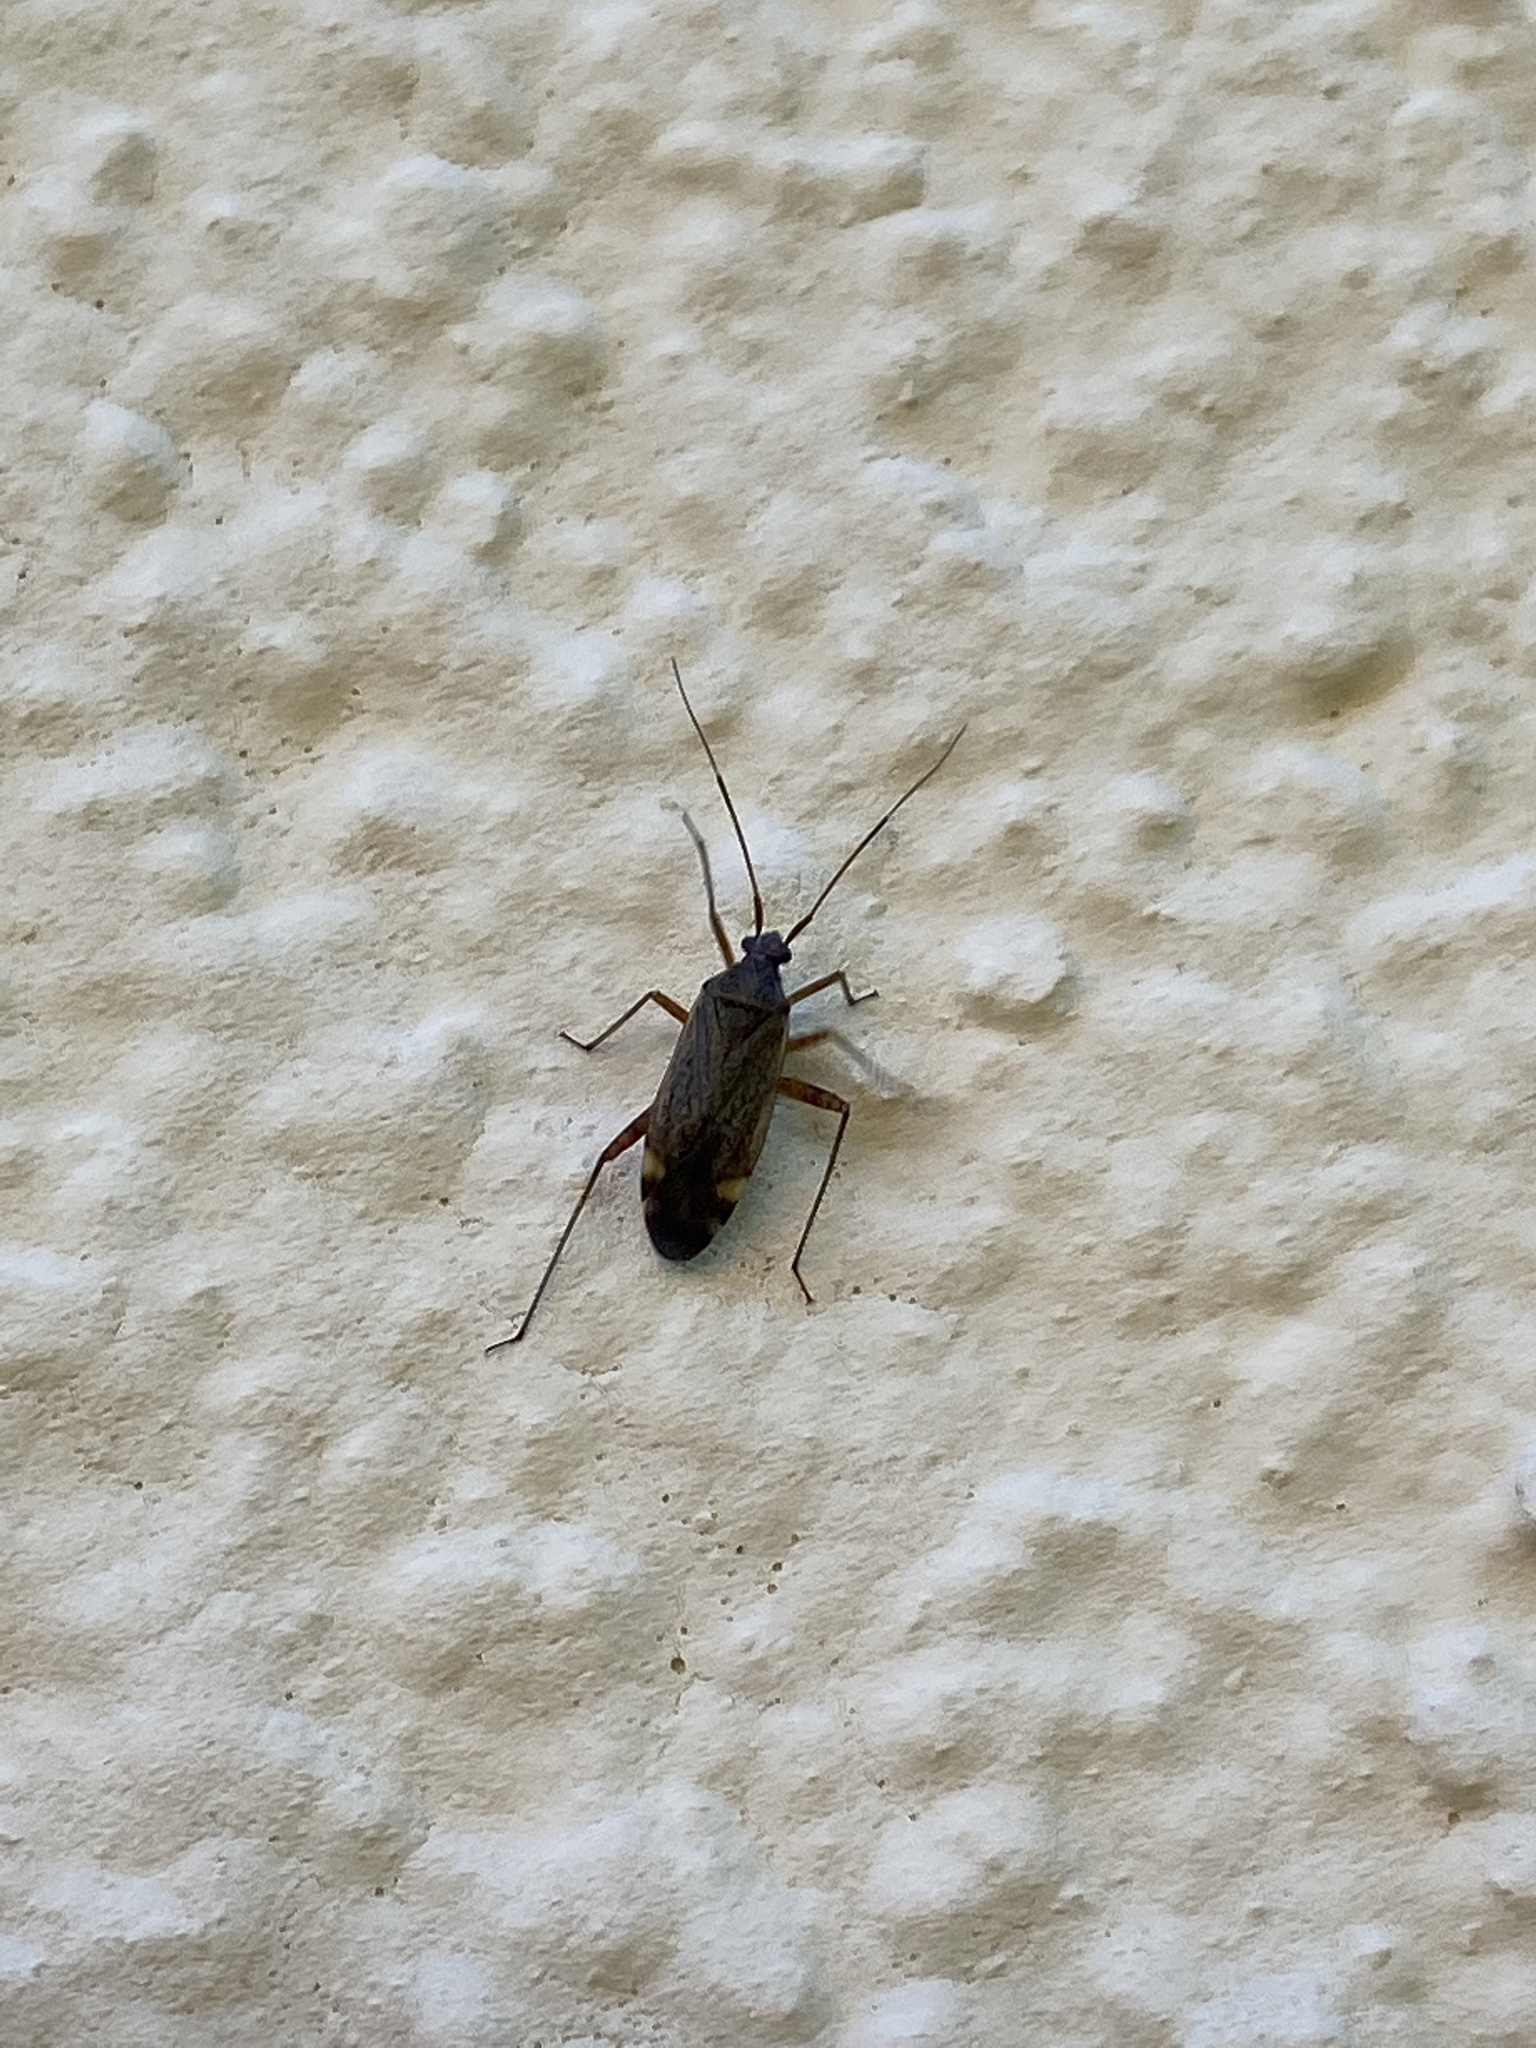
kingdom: Animalia
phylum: Arthropoda
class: Insecta
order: Hemiptera
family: Miridae
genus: Closterotomus
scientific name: Closterotomus fulvomaculatus
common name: Spotted plant bug
